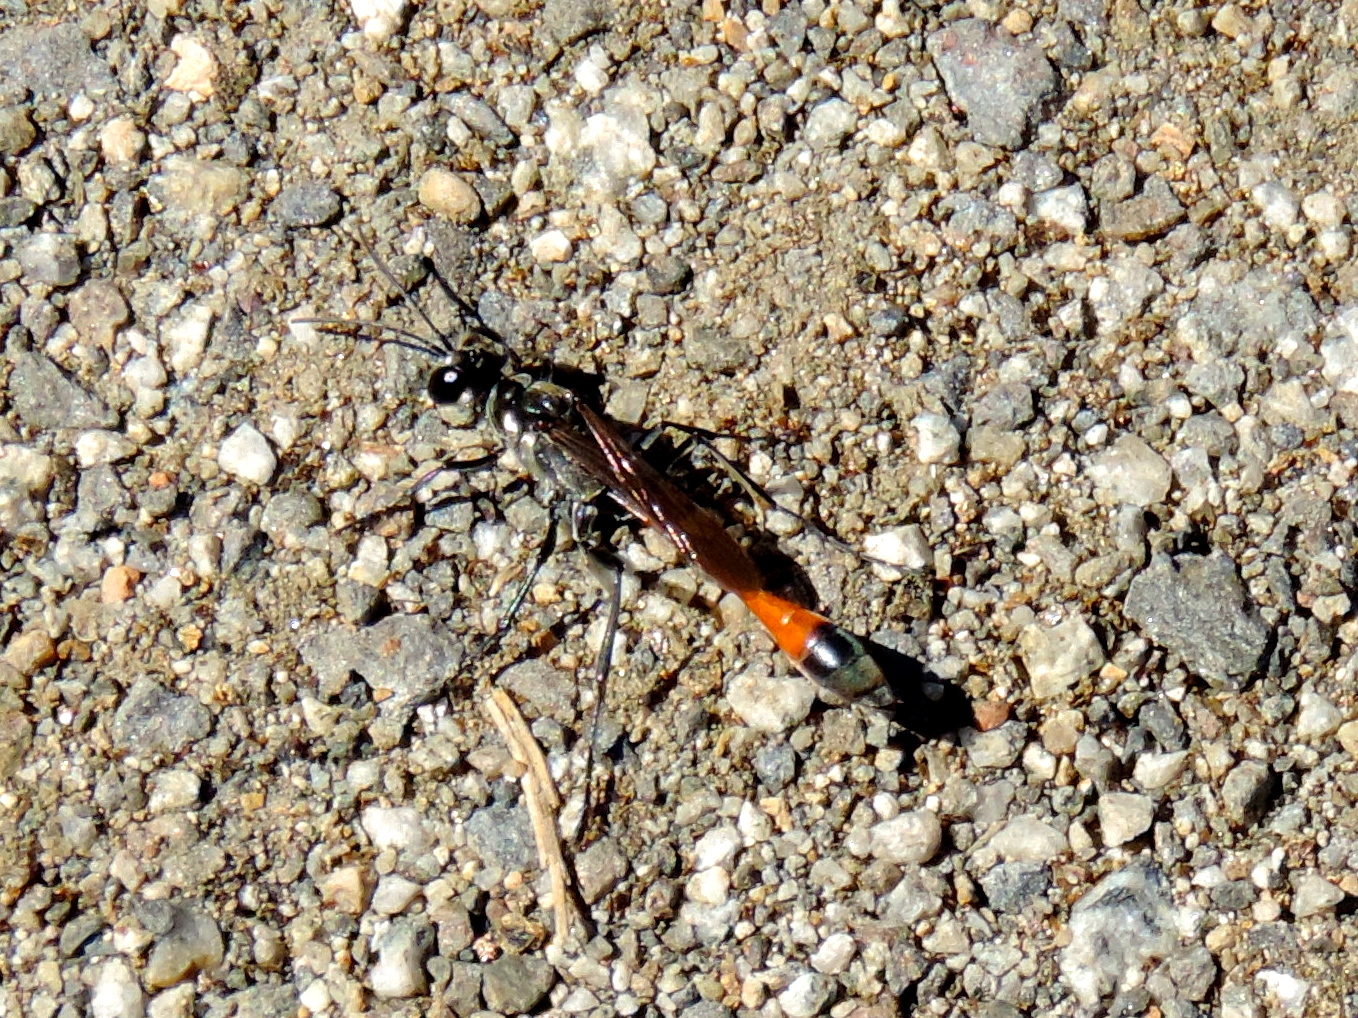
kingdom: Animalia
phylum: Arthropoda
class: Insecta
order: Hymenoptera
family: Sphecidae
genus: Ammophila
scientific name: Ammophila
